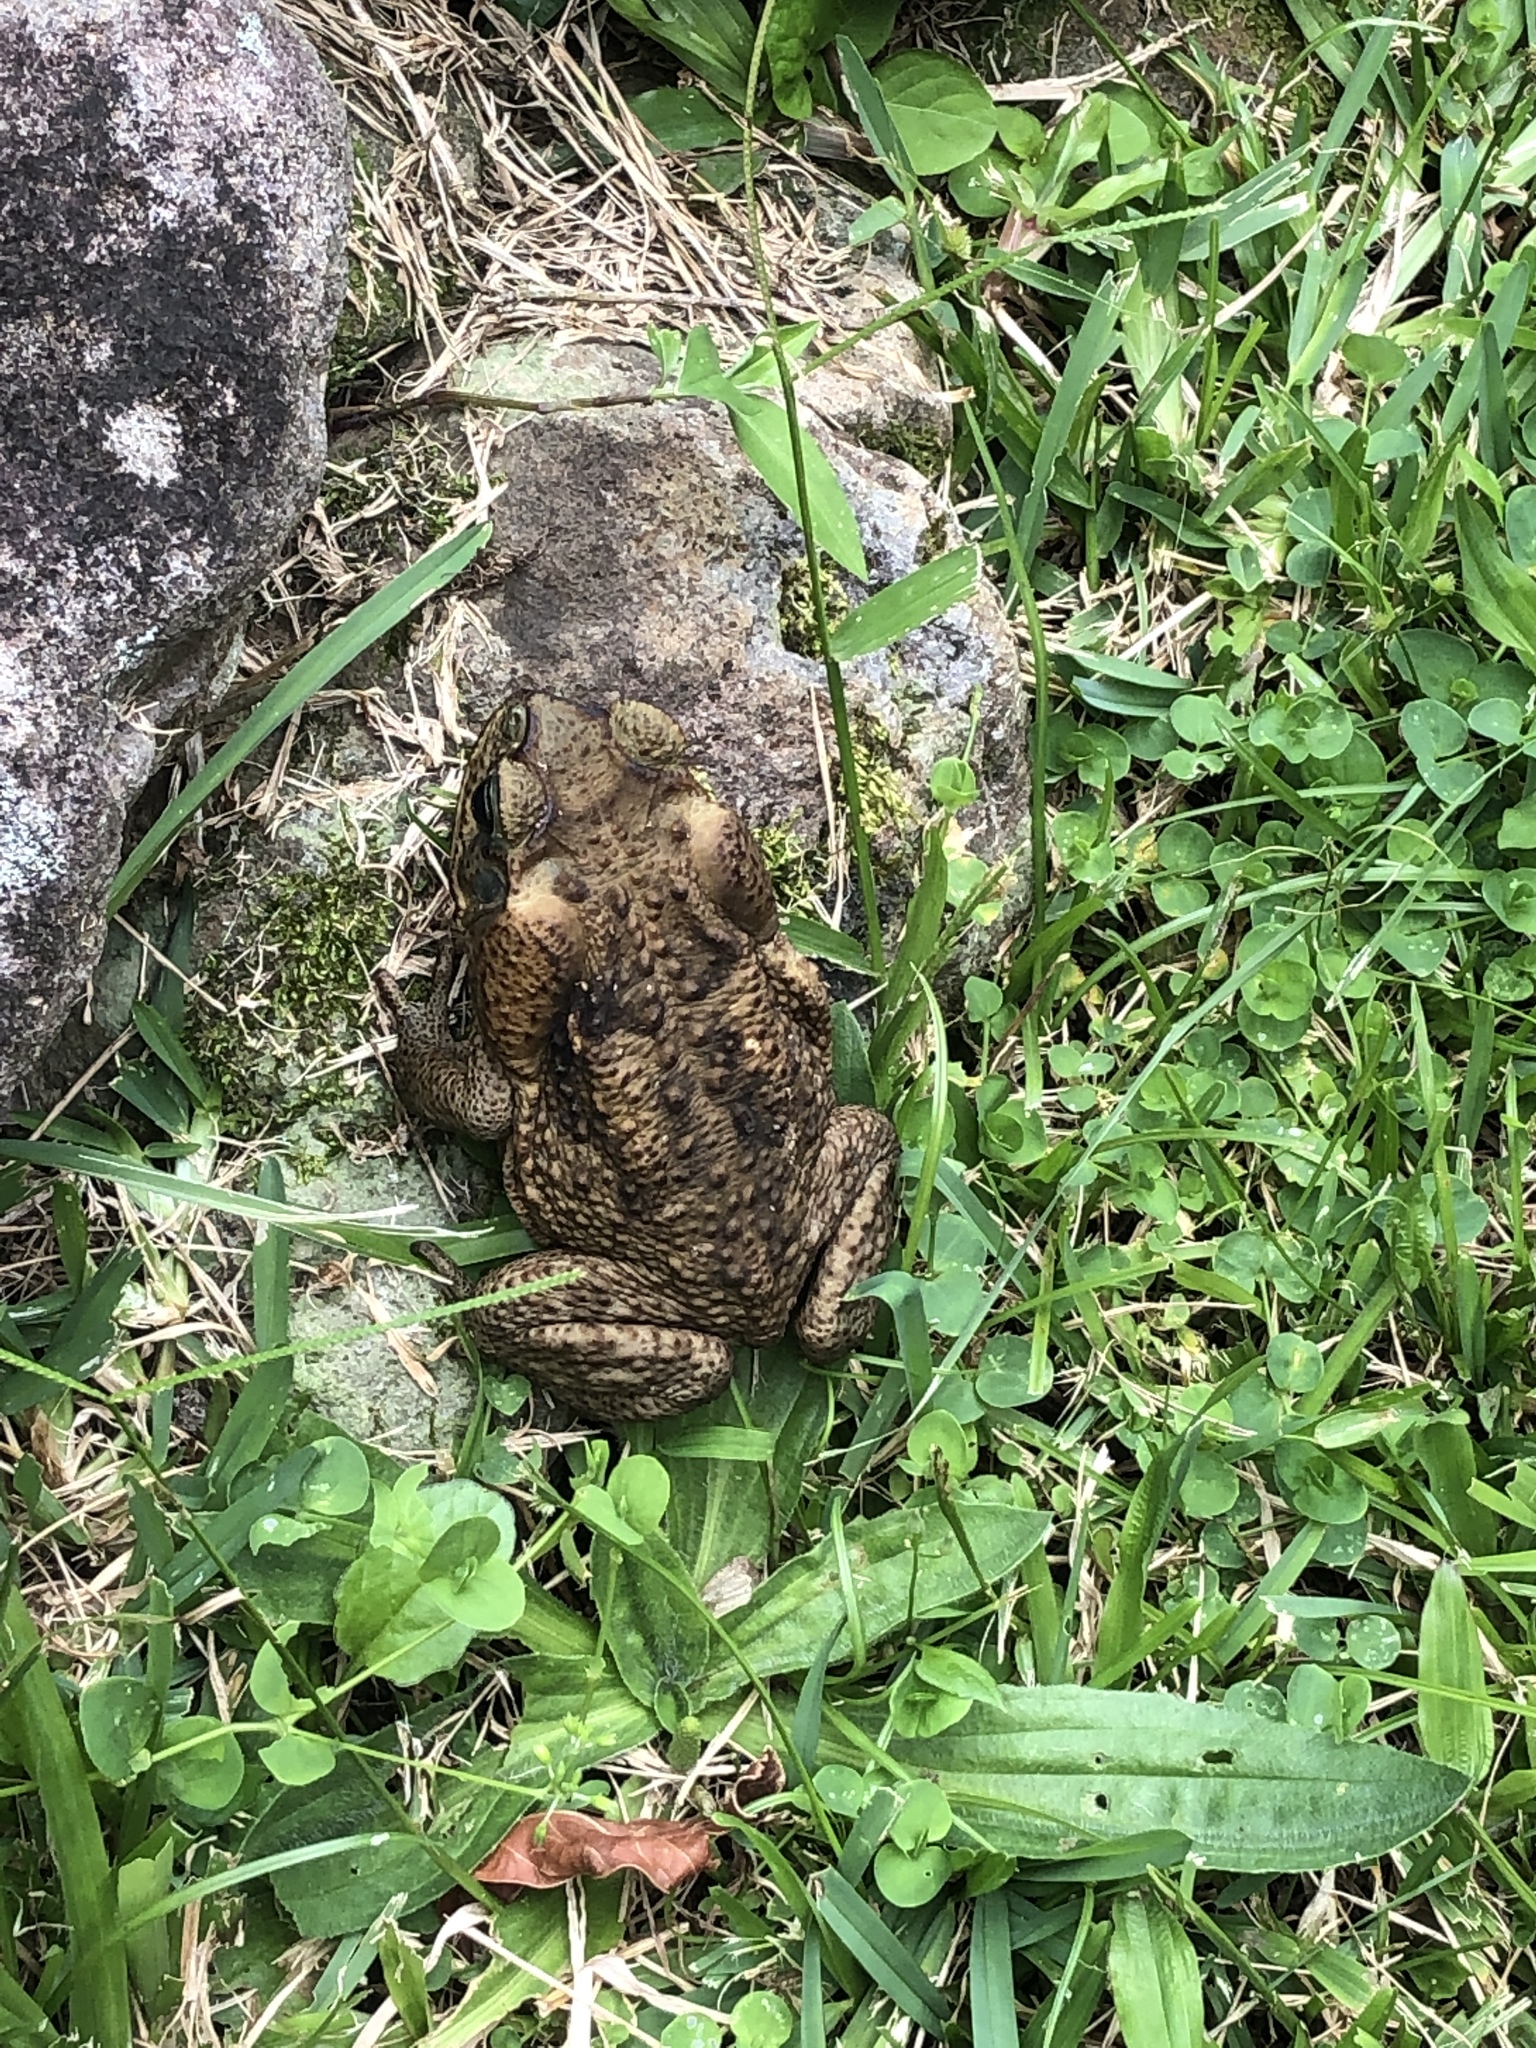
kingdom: Animalia
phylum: Chordata
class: Amphibia
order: Anura
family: Bufonidae
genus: Rhinella
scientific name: Rhinella horribilis
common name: Mesoamerican cane toad
